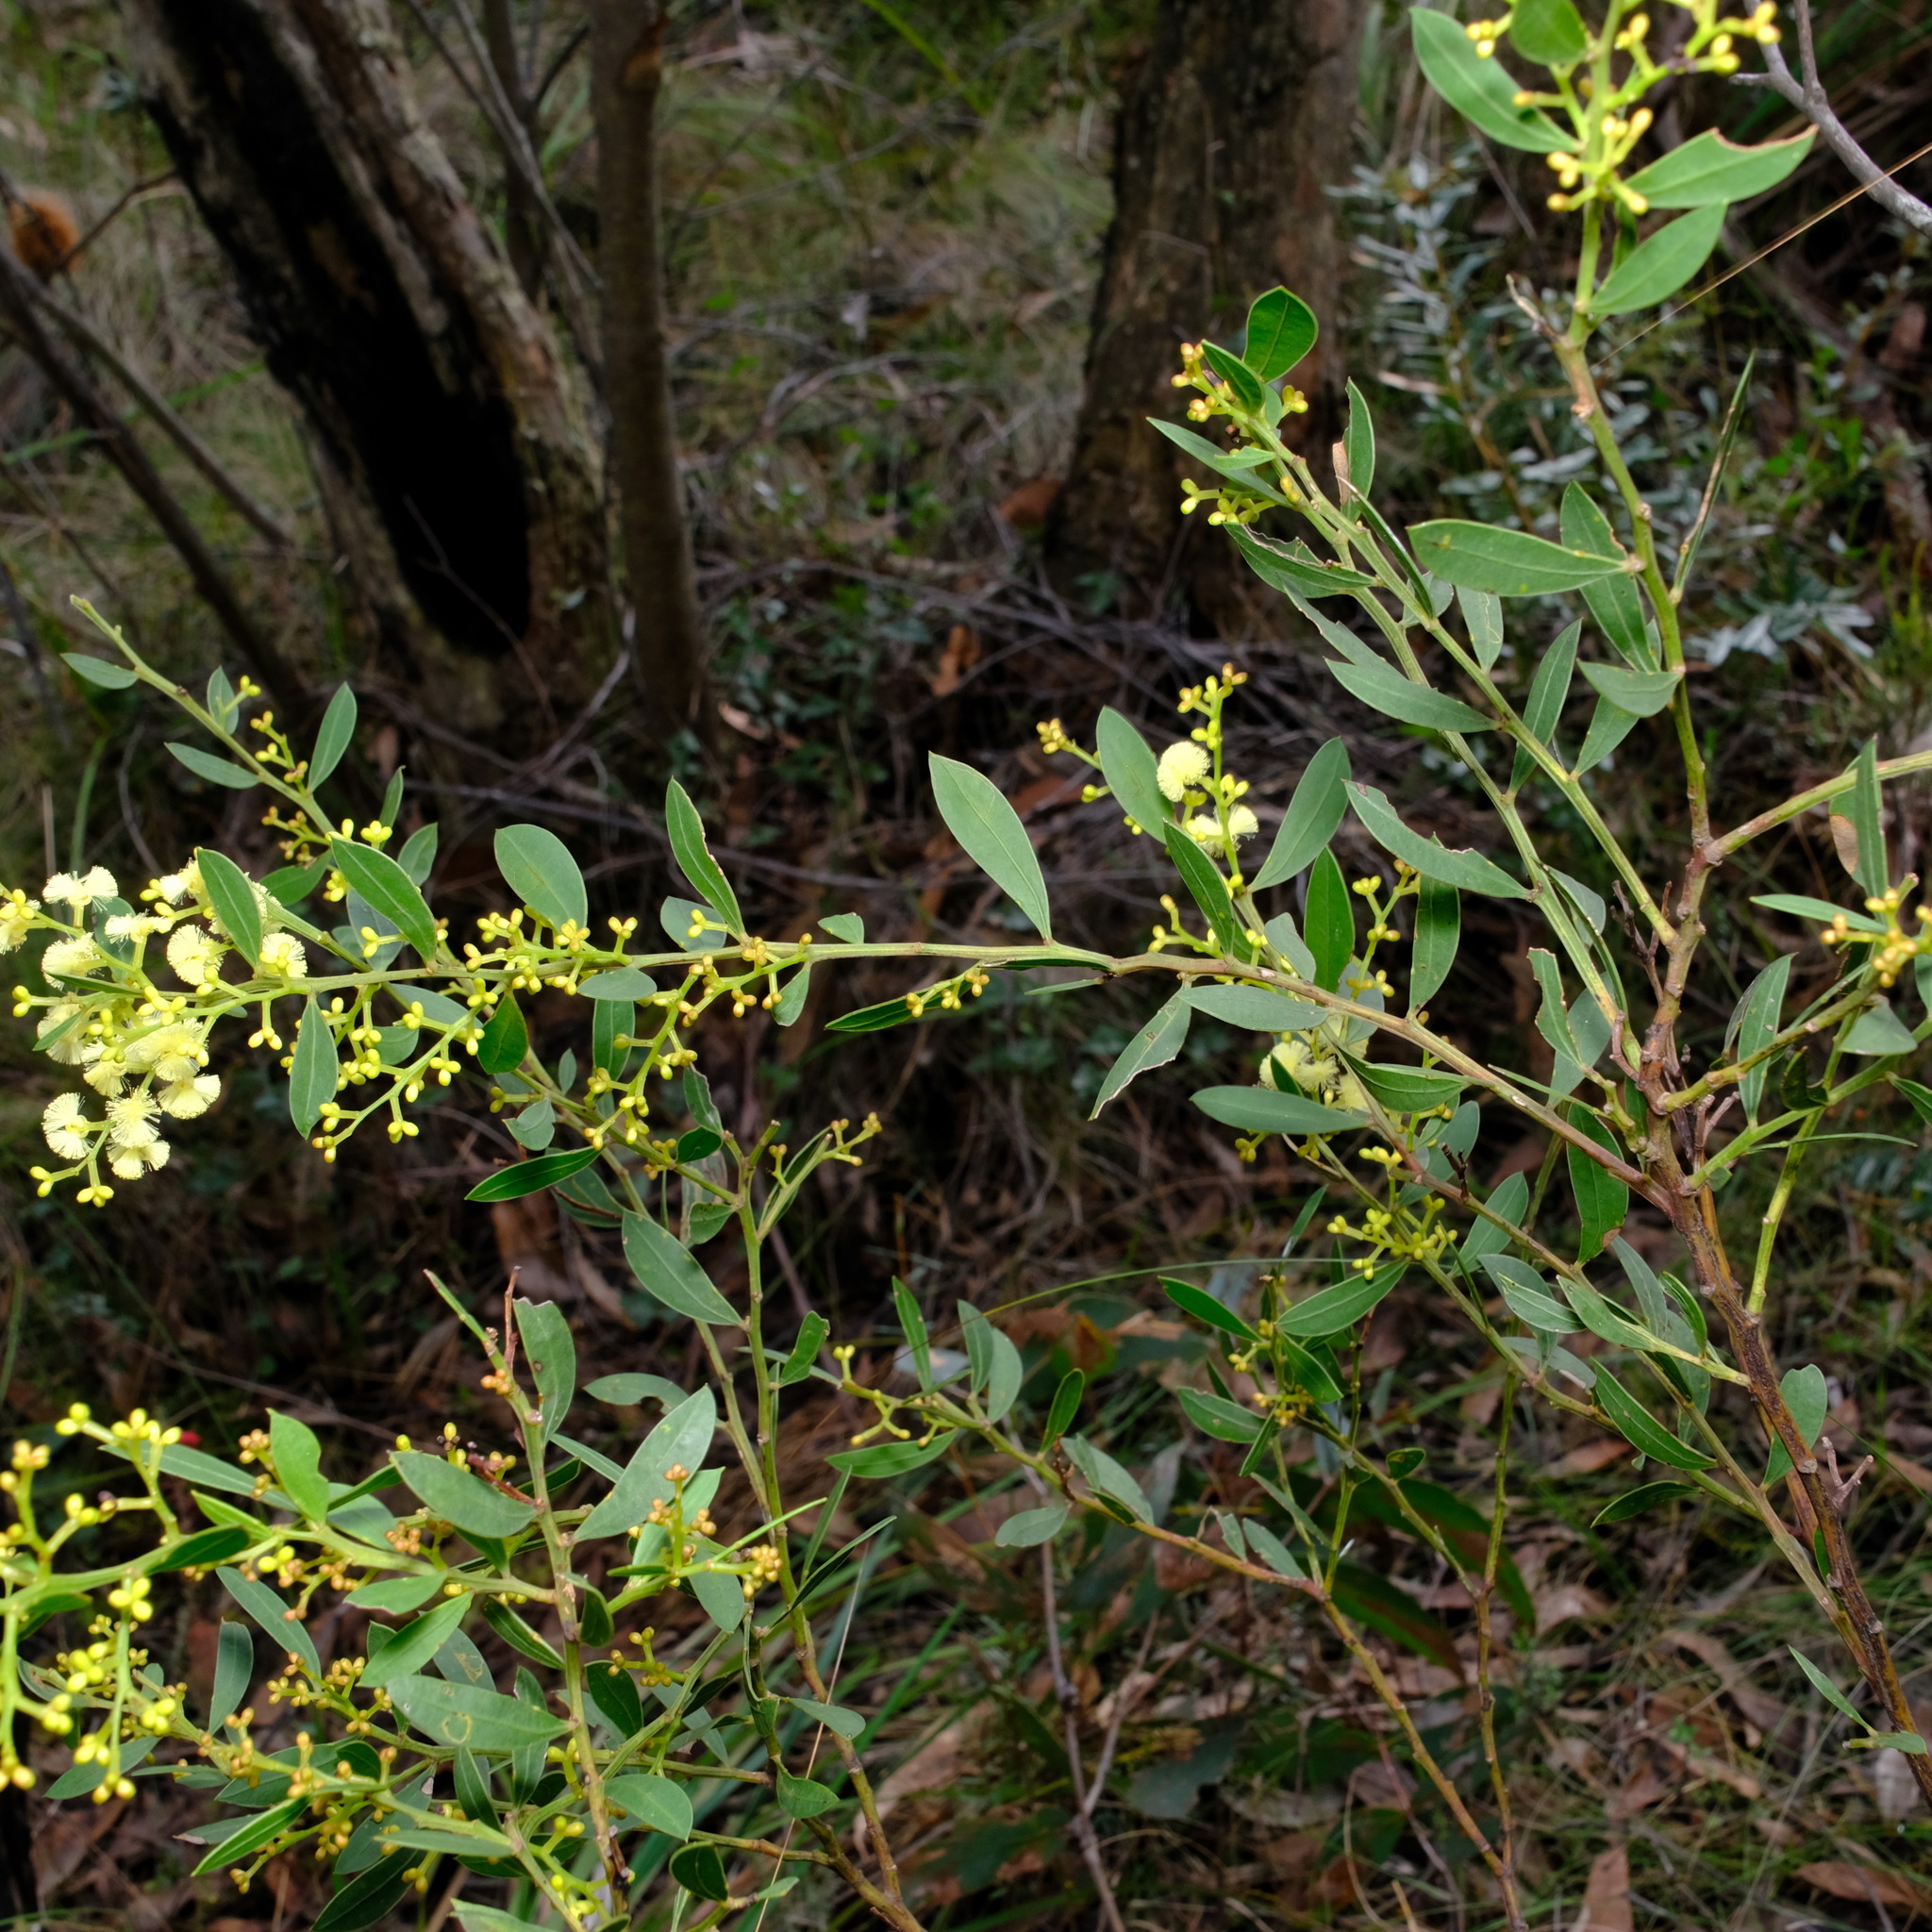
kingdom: Plantae
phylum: Tracheophyta
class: Magnoliopsida
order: Fabales
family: Fabaceae
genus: Acacia
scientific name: Acacia myrtifolia
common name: Myrtle wattle
